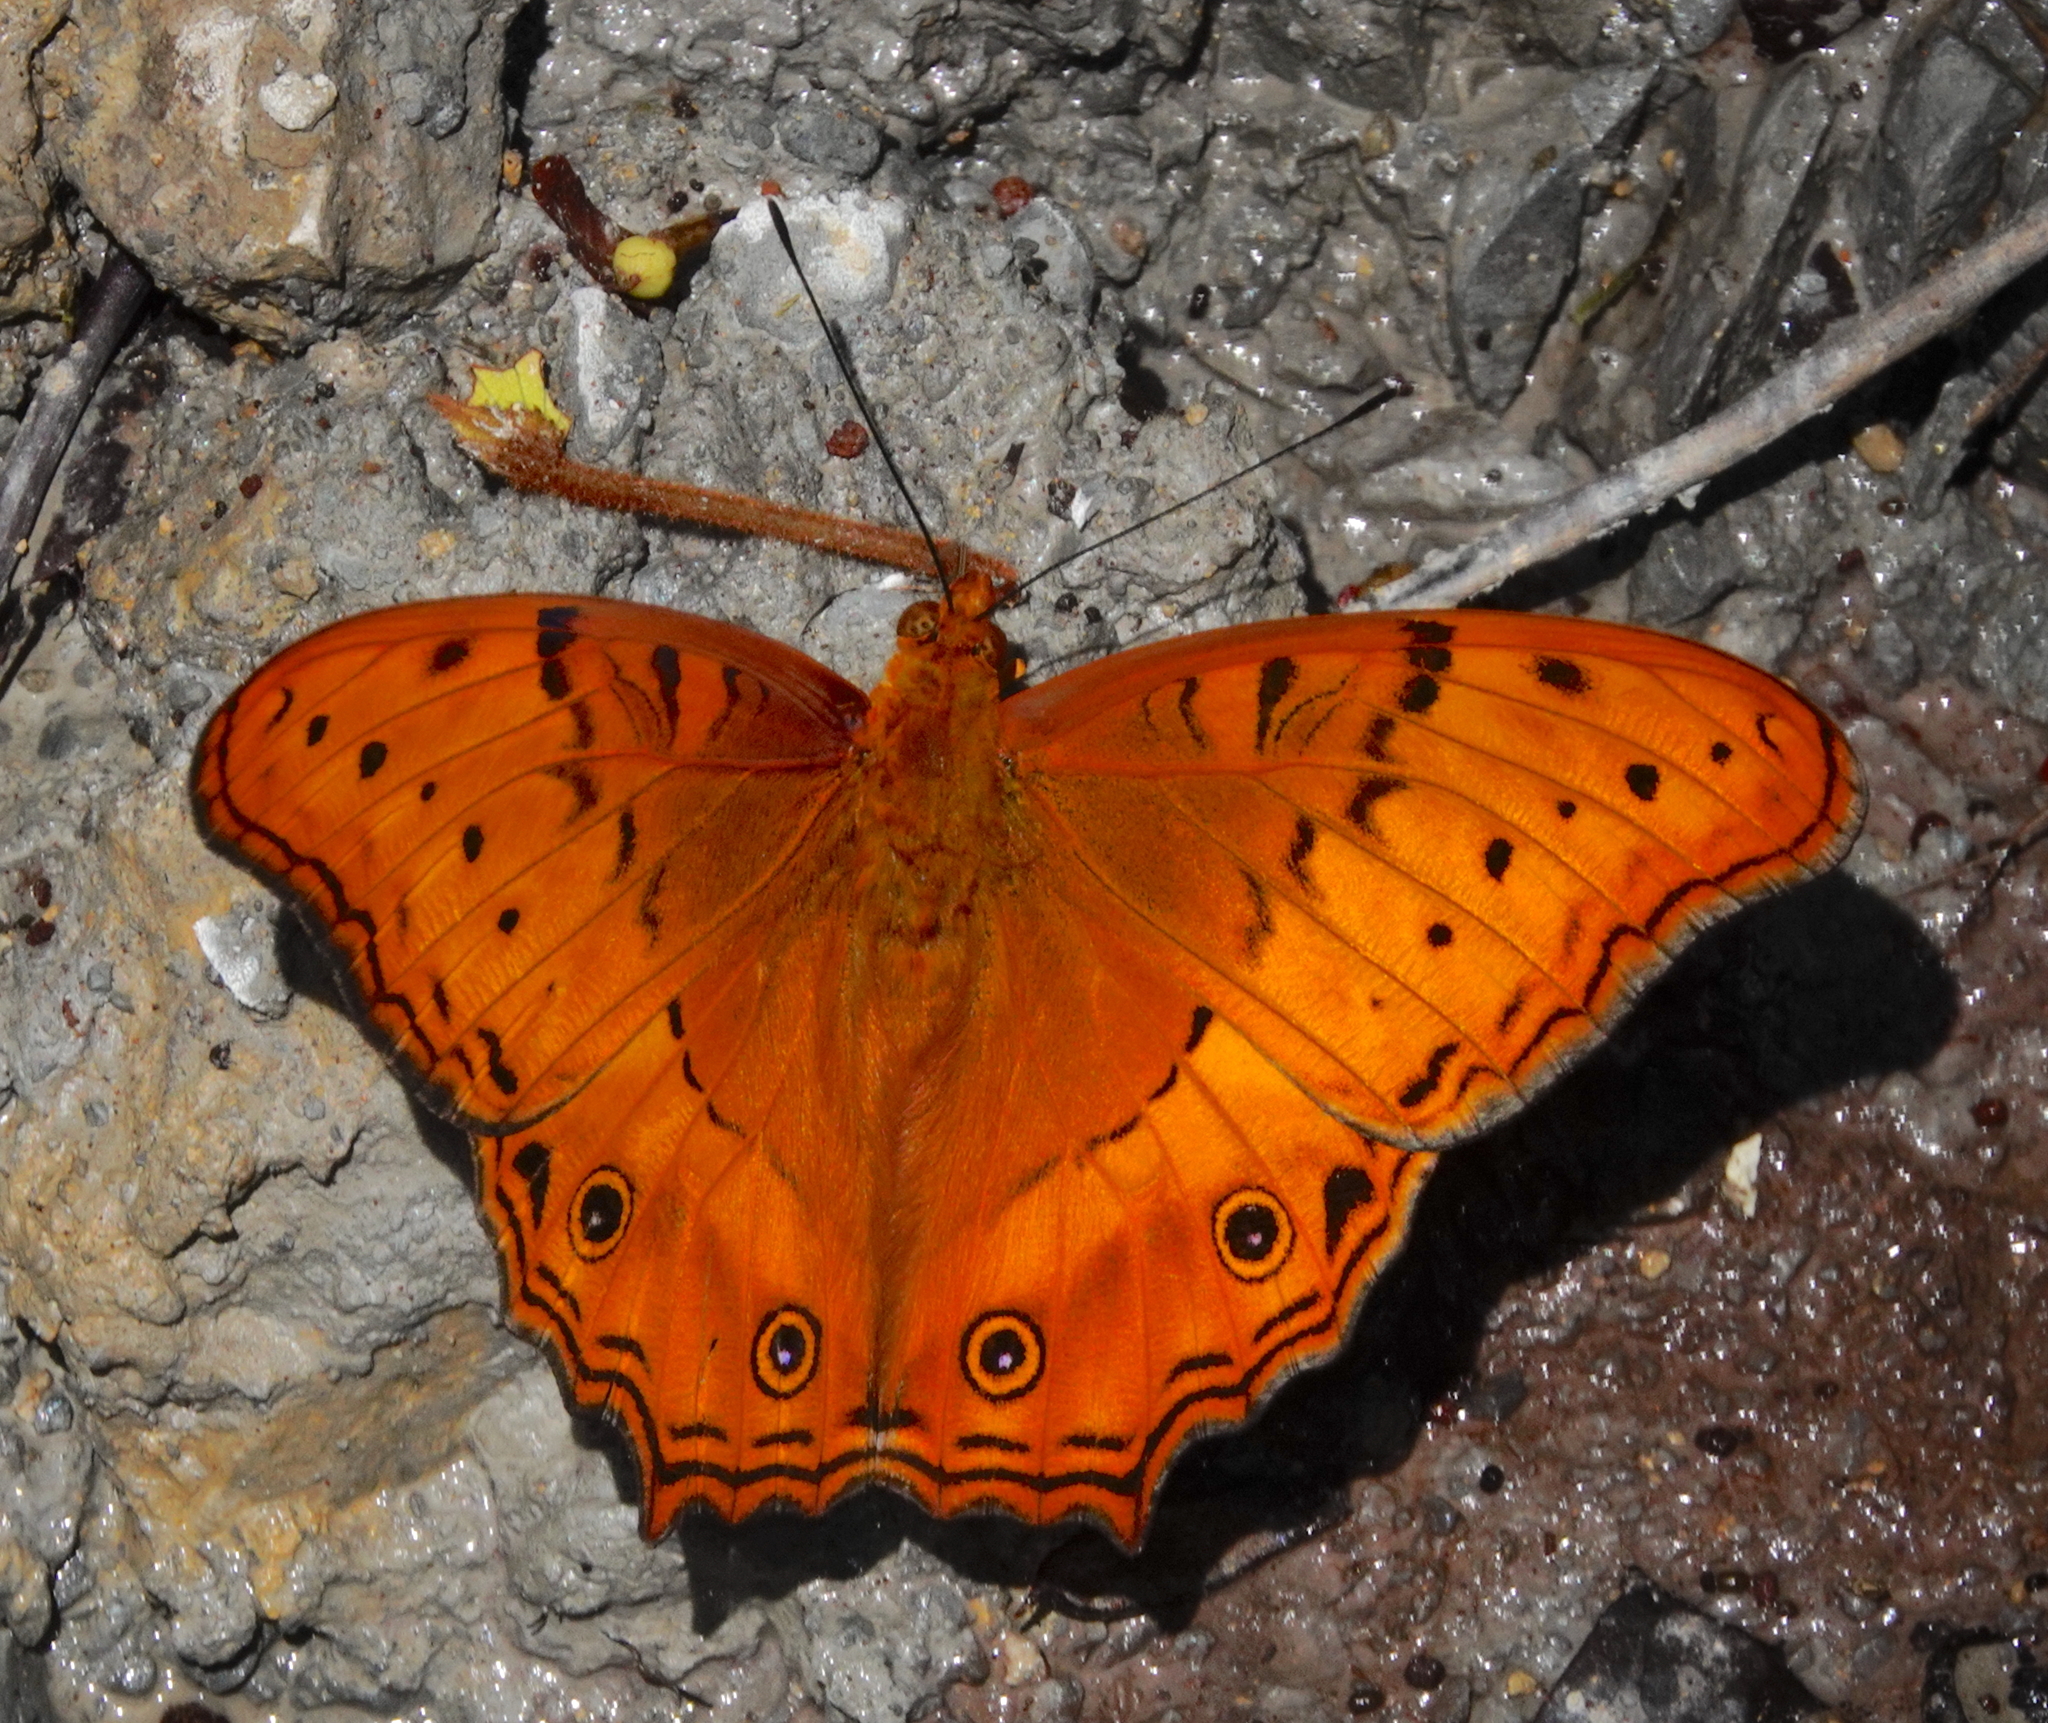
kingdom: Animalia
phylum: Arthropoda
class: Insecta
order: Lepidoptera
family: Nymphalidae
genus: Vindula
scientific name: Vindula arsinoe
